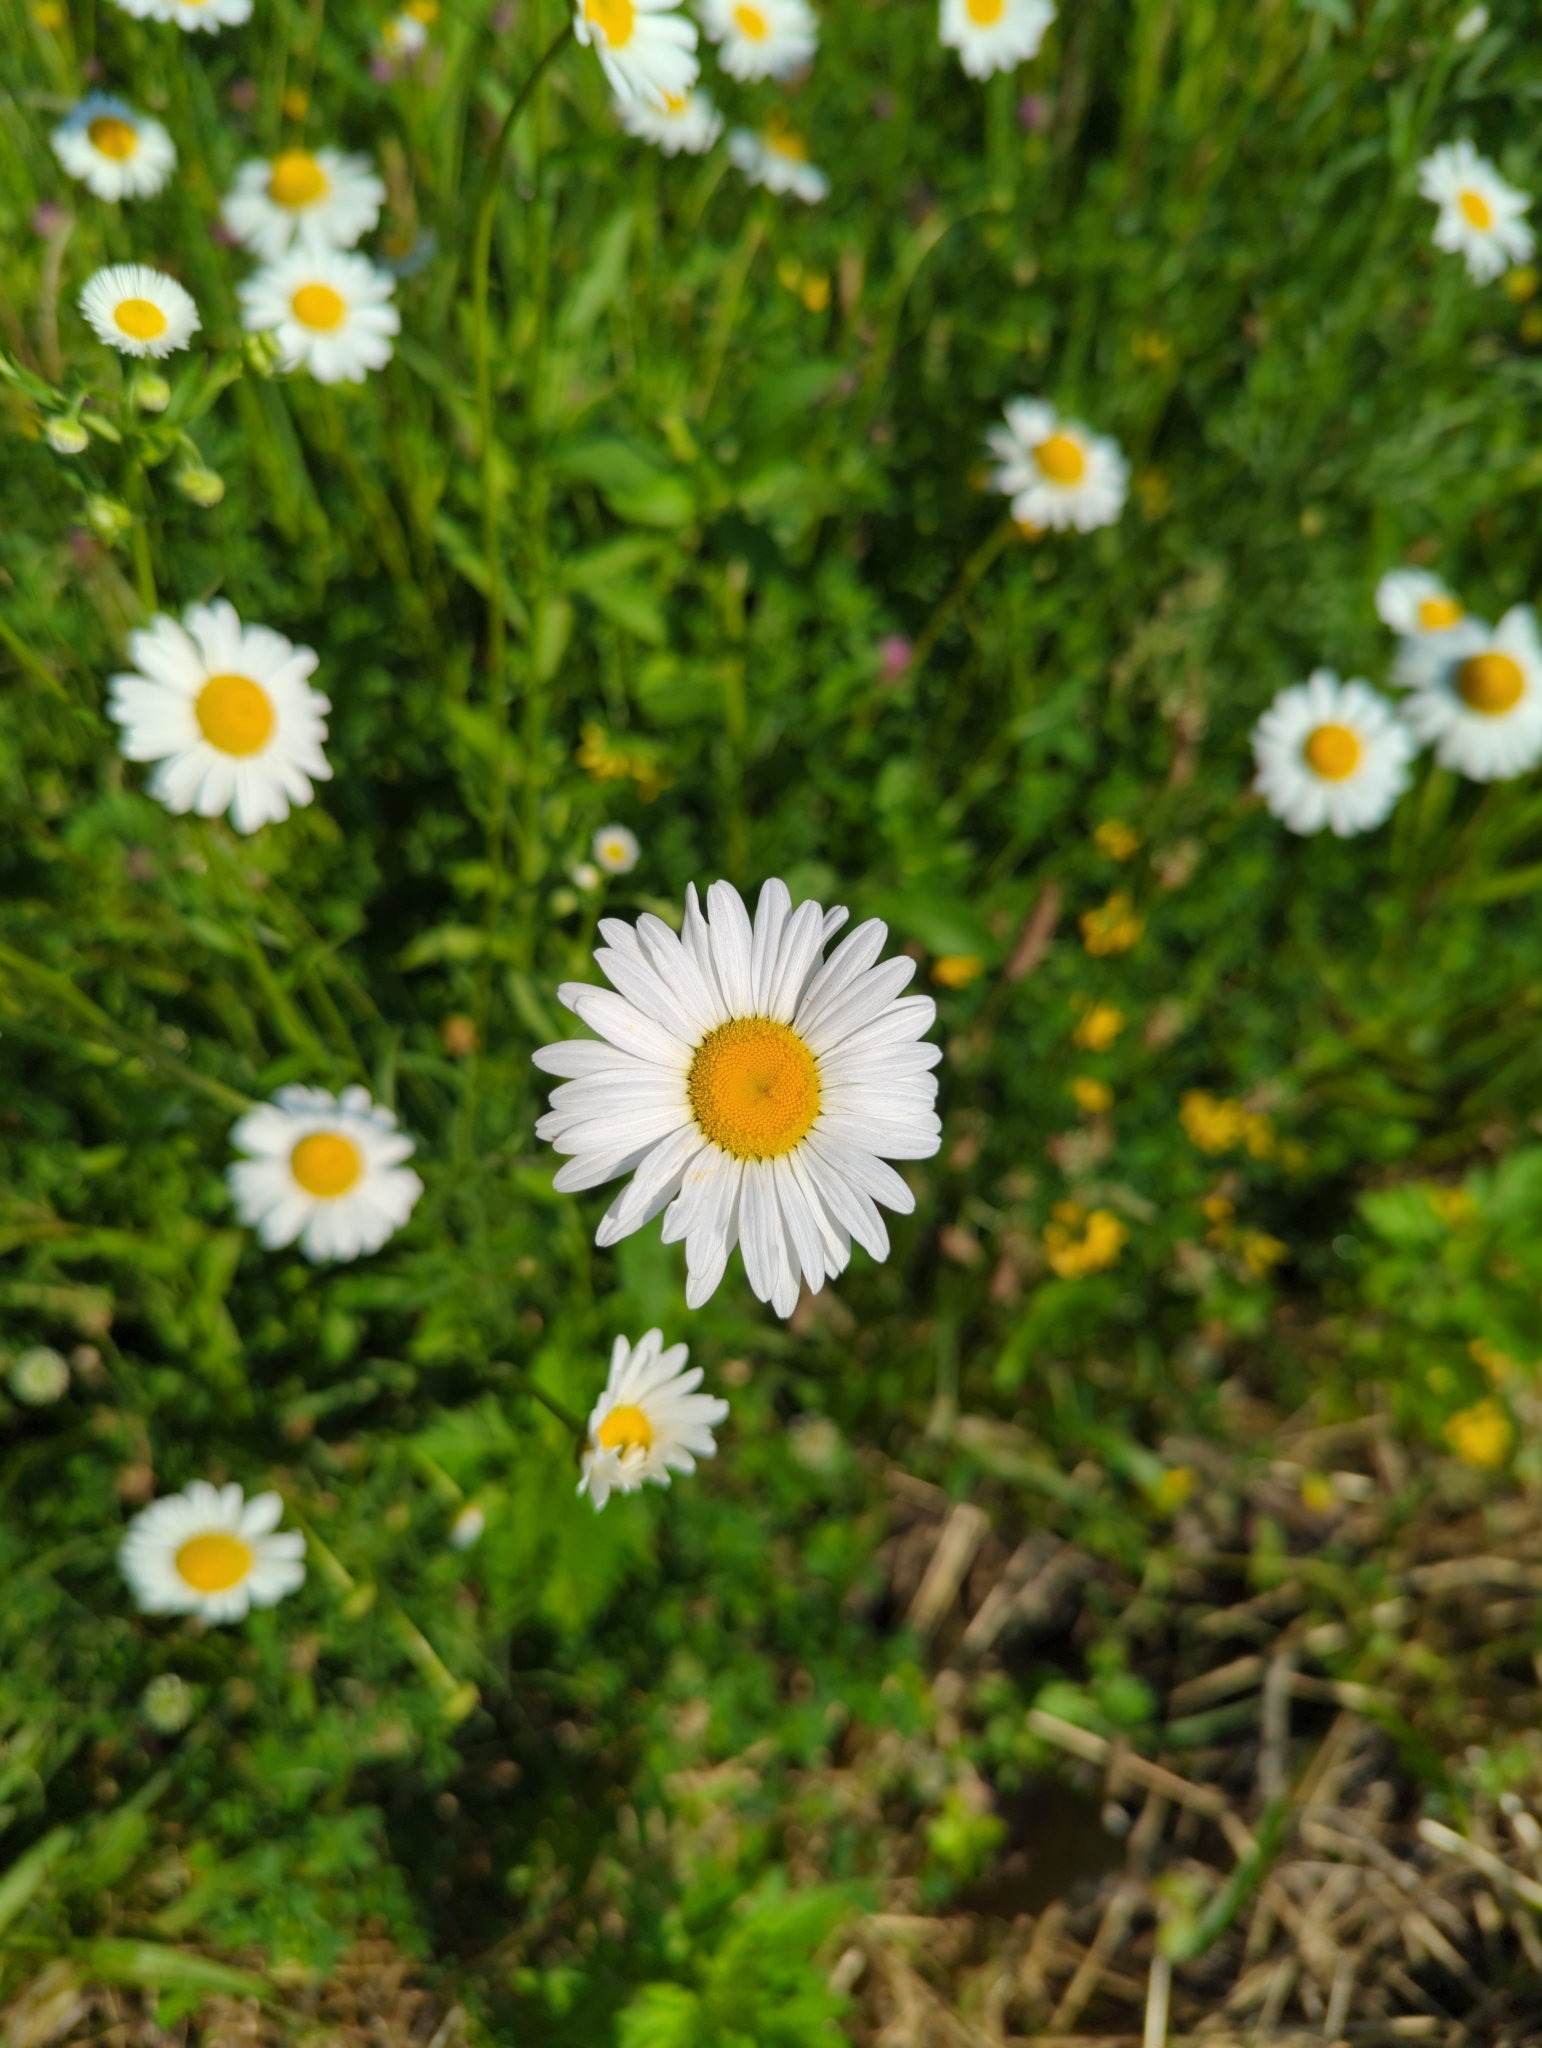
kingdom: Plantae
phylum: Tracheophyta
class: Magnoliopsida
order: Asterales
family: Asteraceae
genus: Leucanthemum
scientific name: Leucanthemum vulgare
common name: Oxeye daisy
